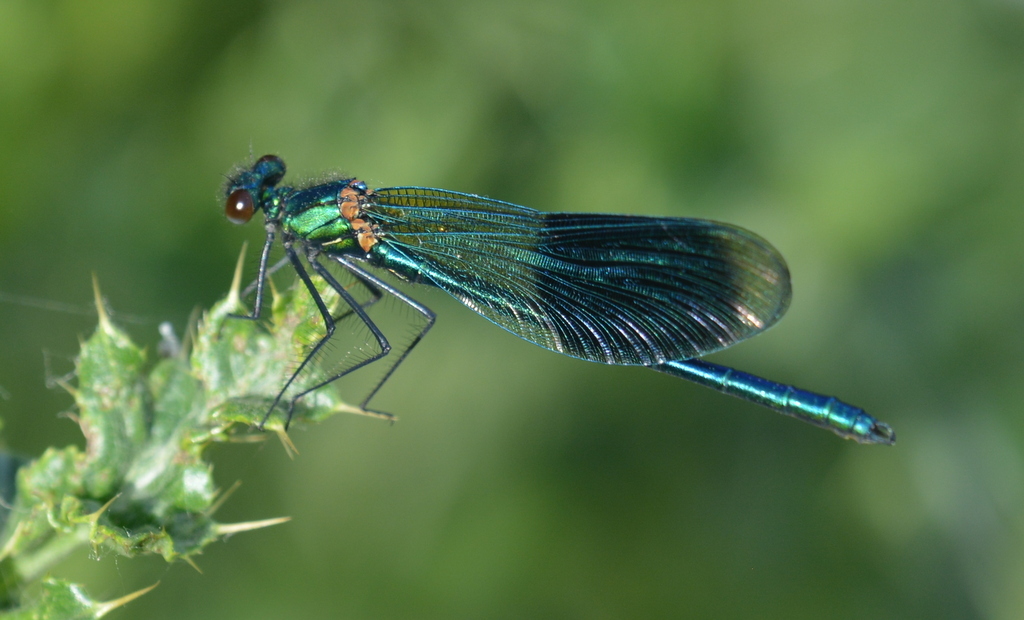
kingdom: Animalia
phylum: Arthropoda
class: Insecta
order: Odonata
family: Calopterygidae
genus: Calopteryx
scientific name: Calopteryx splendens
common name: Banded demoiselle
